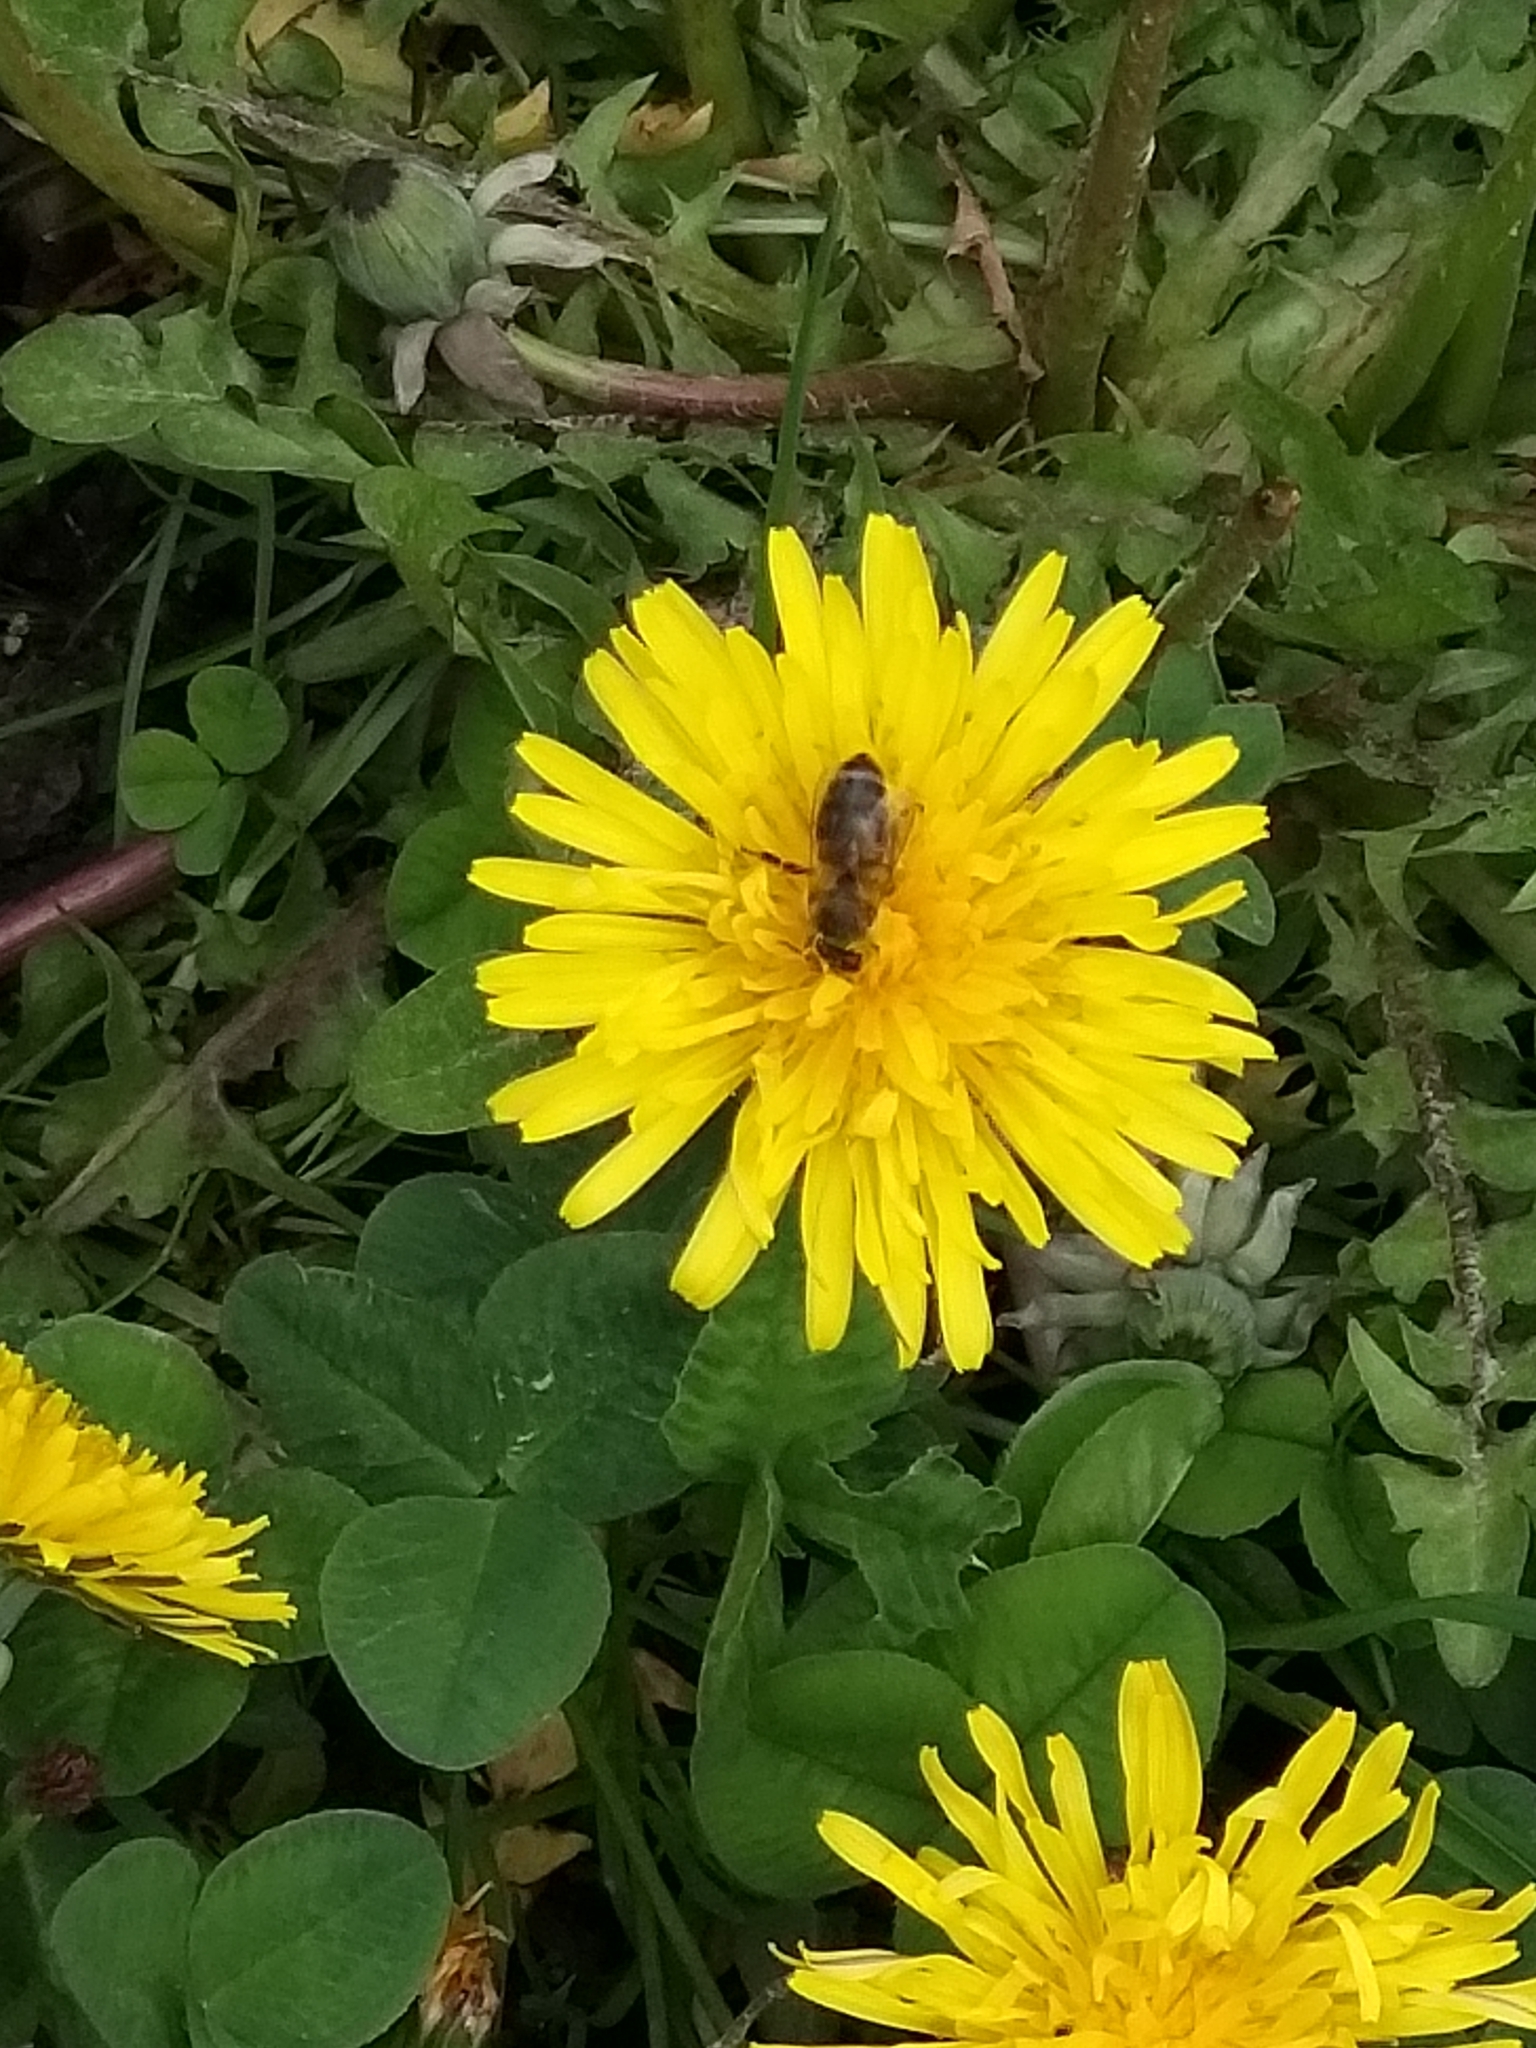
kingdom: Animalia
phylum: Arthropoda
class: Insecta
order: Hymenoptera
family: Apidae
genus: Apis
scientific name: Apis mellifera
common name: Honey bee
